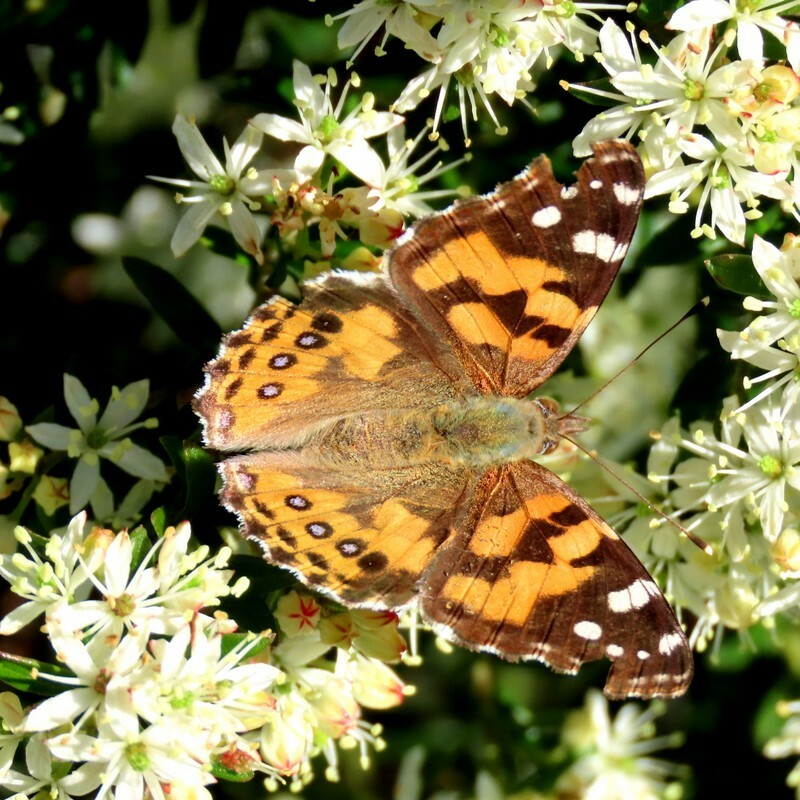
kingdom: Animalia
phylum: Arthropoda
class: Insecta
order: Lepidoptera
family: Nymphalidae
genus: Vanessa
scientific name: Vanessa kershawi
